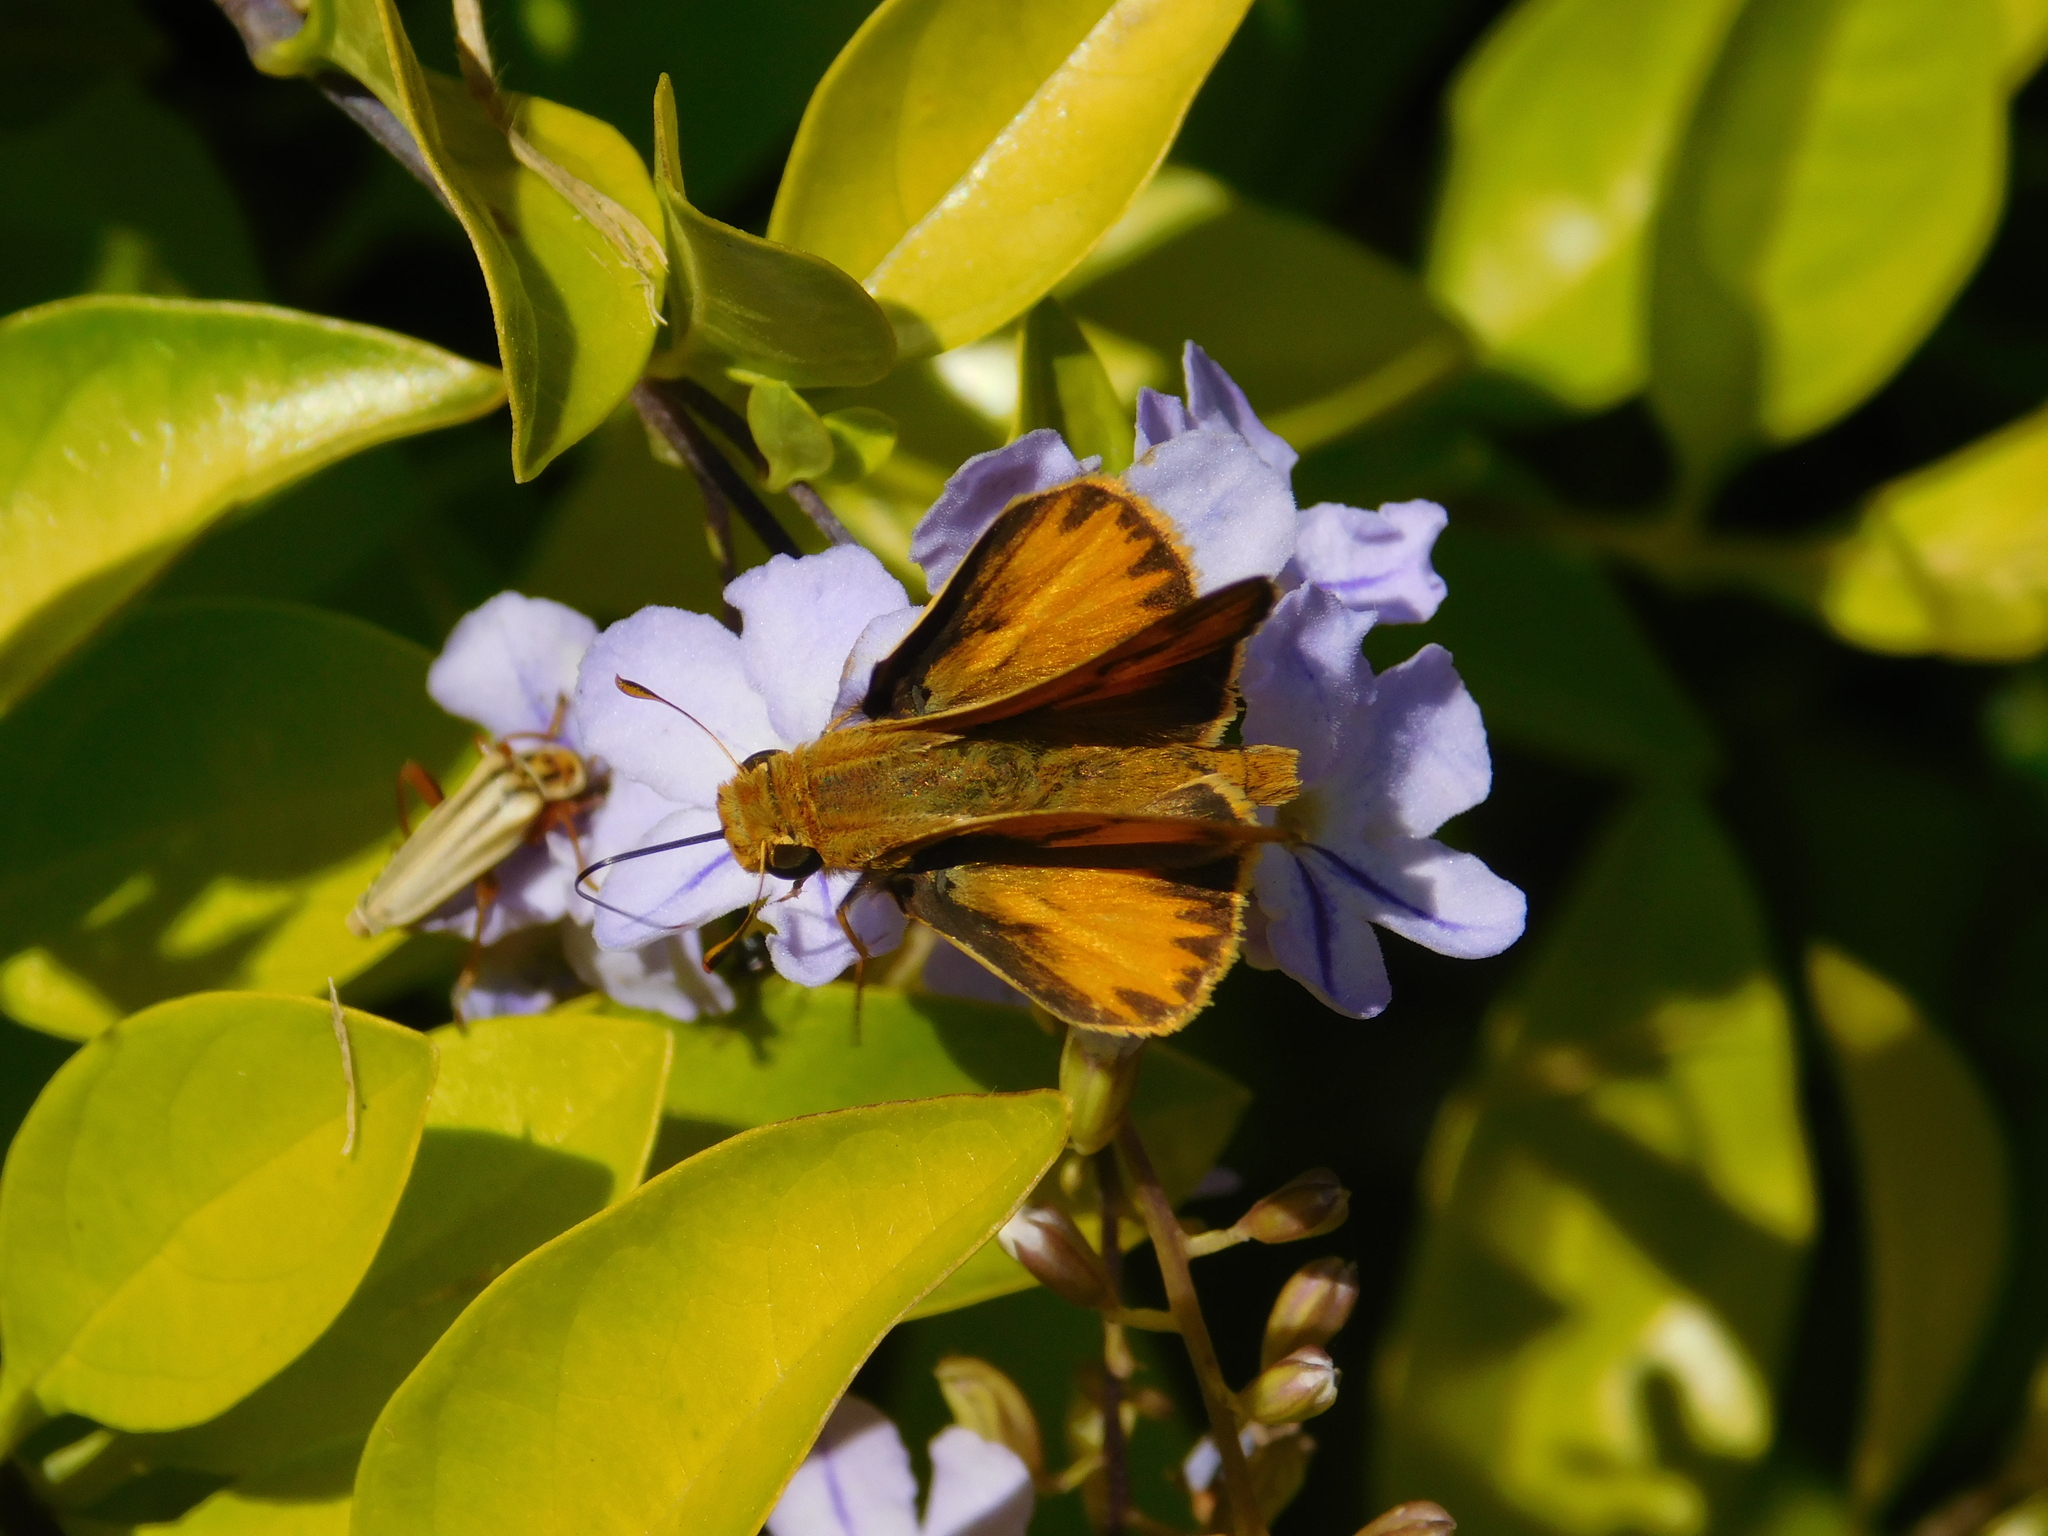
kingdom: Animalia
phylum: Arthropoda
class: Insecta
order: Lepidoptera
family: Hesperiidae
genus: Hylephila
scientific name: Hylephila phyleus
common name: Fiery skipper
